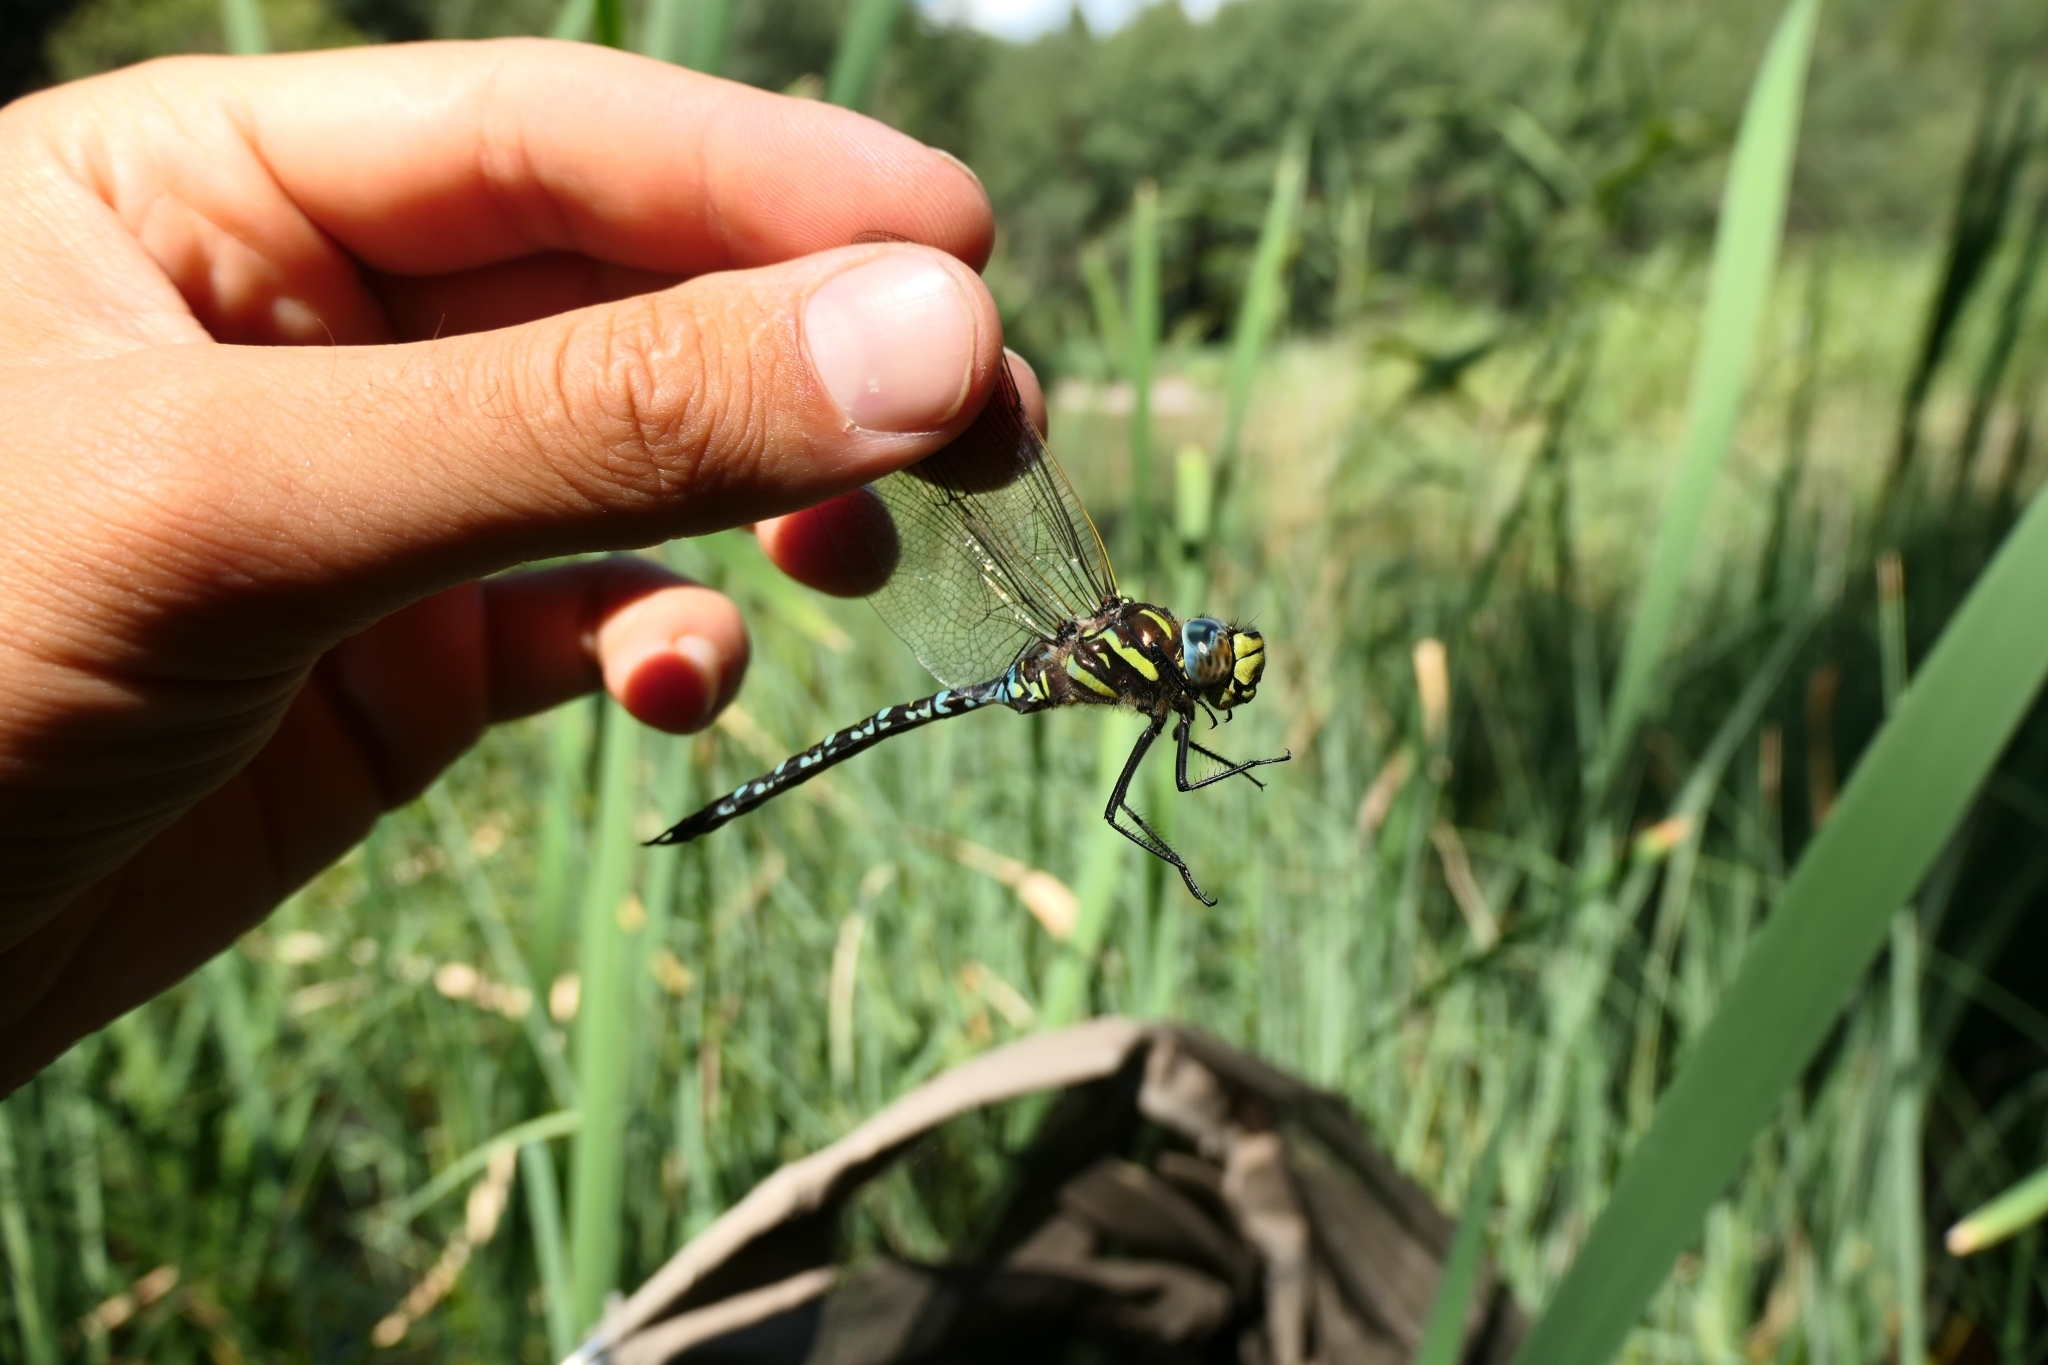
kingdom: Animalia
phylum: Arthropoda
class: Insecta
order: Odonata
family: Aeshnidae
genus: Aeshna
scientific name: Aeshna juncea
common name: Moorland hawker
